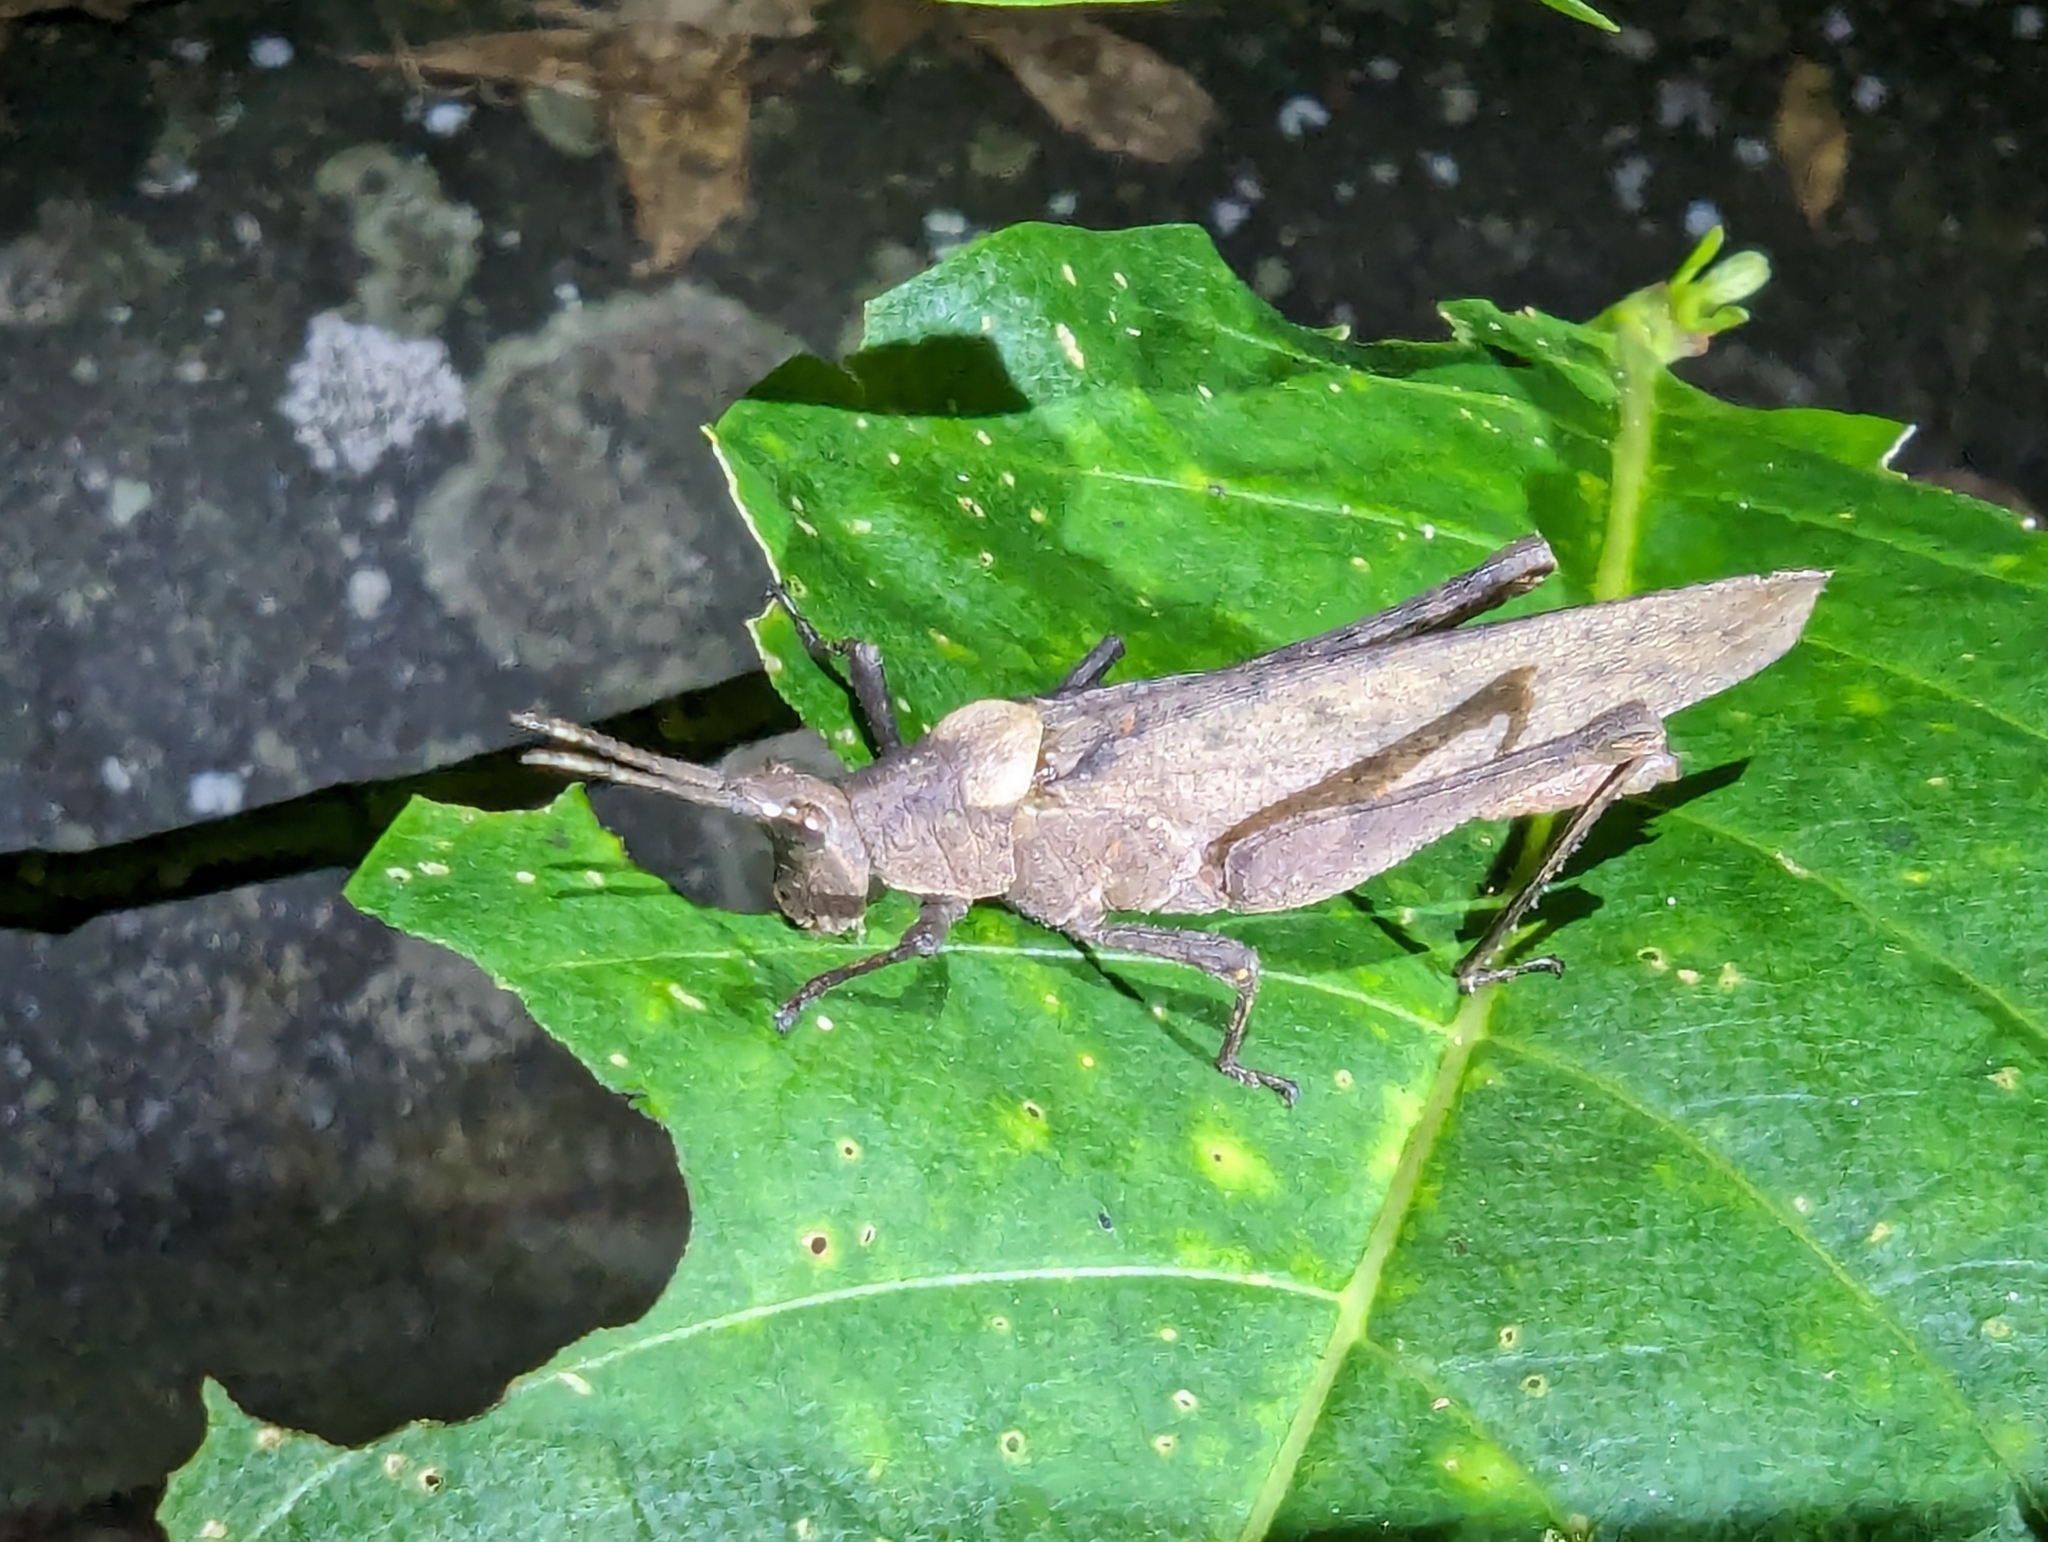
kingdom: Animalia
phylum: Arthropoda
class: Insecta
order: Orthoptera
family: Pyrgomorphidae
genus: Desmoptera
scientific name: Desmoptera truncatipennis
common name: Large forest pyrgomorph
